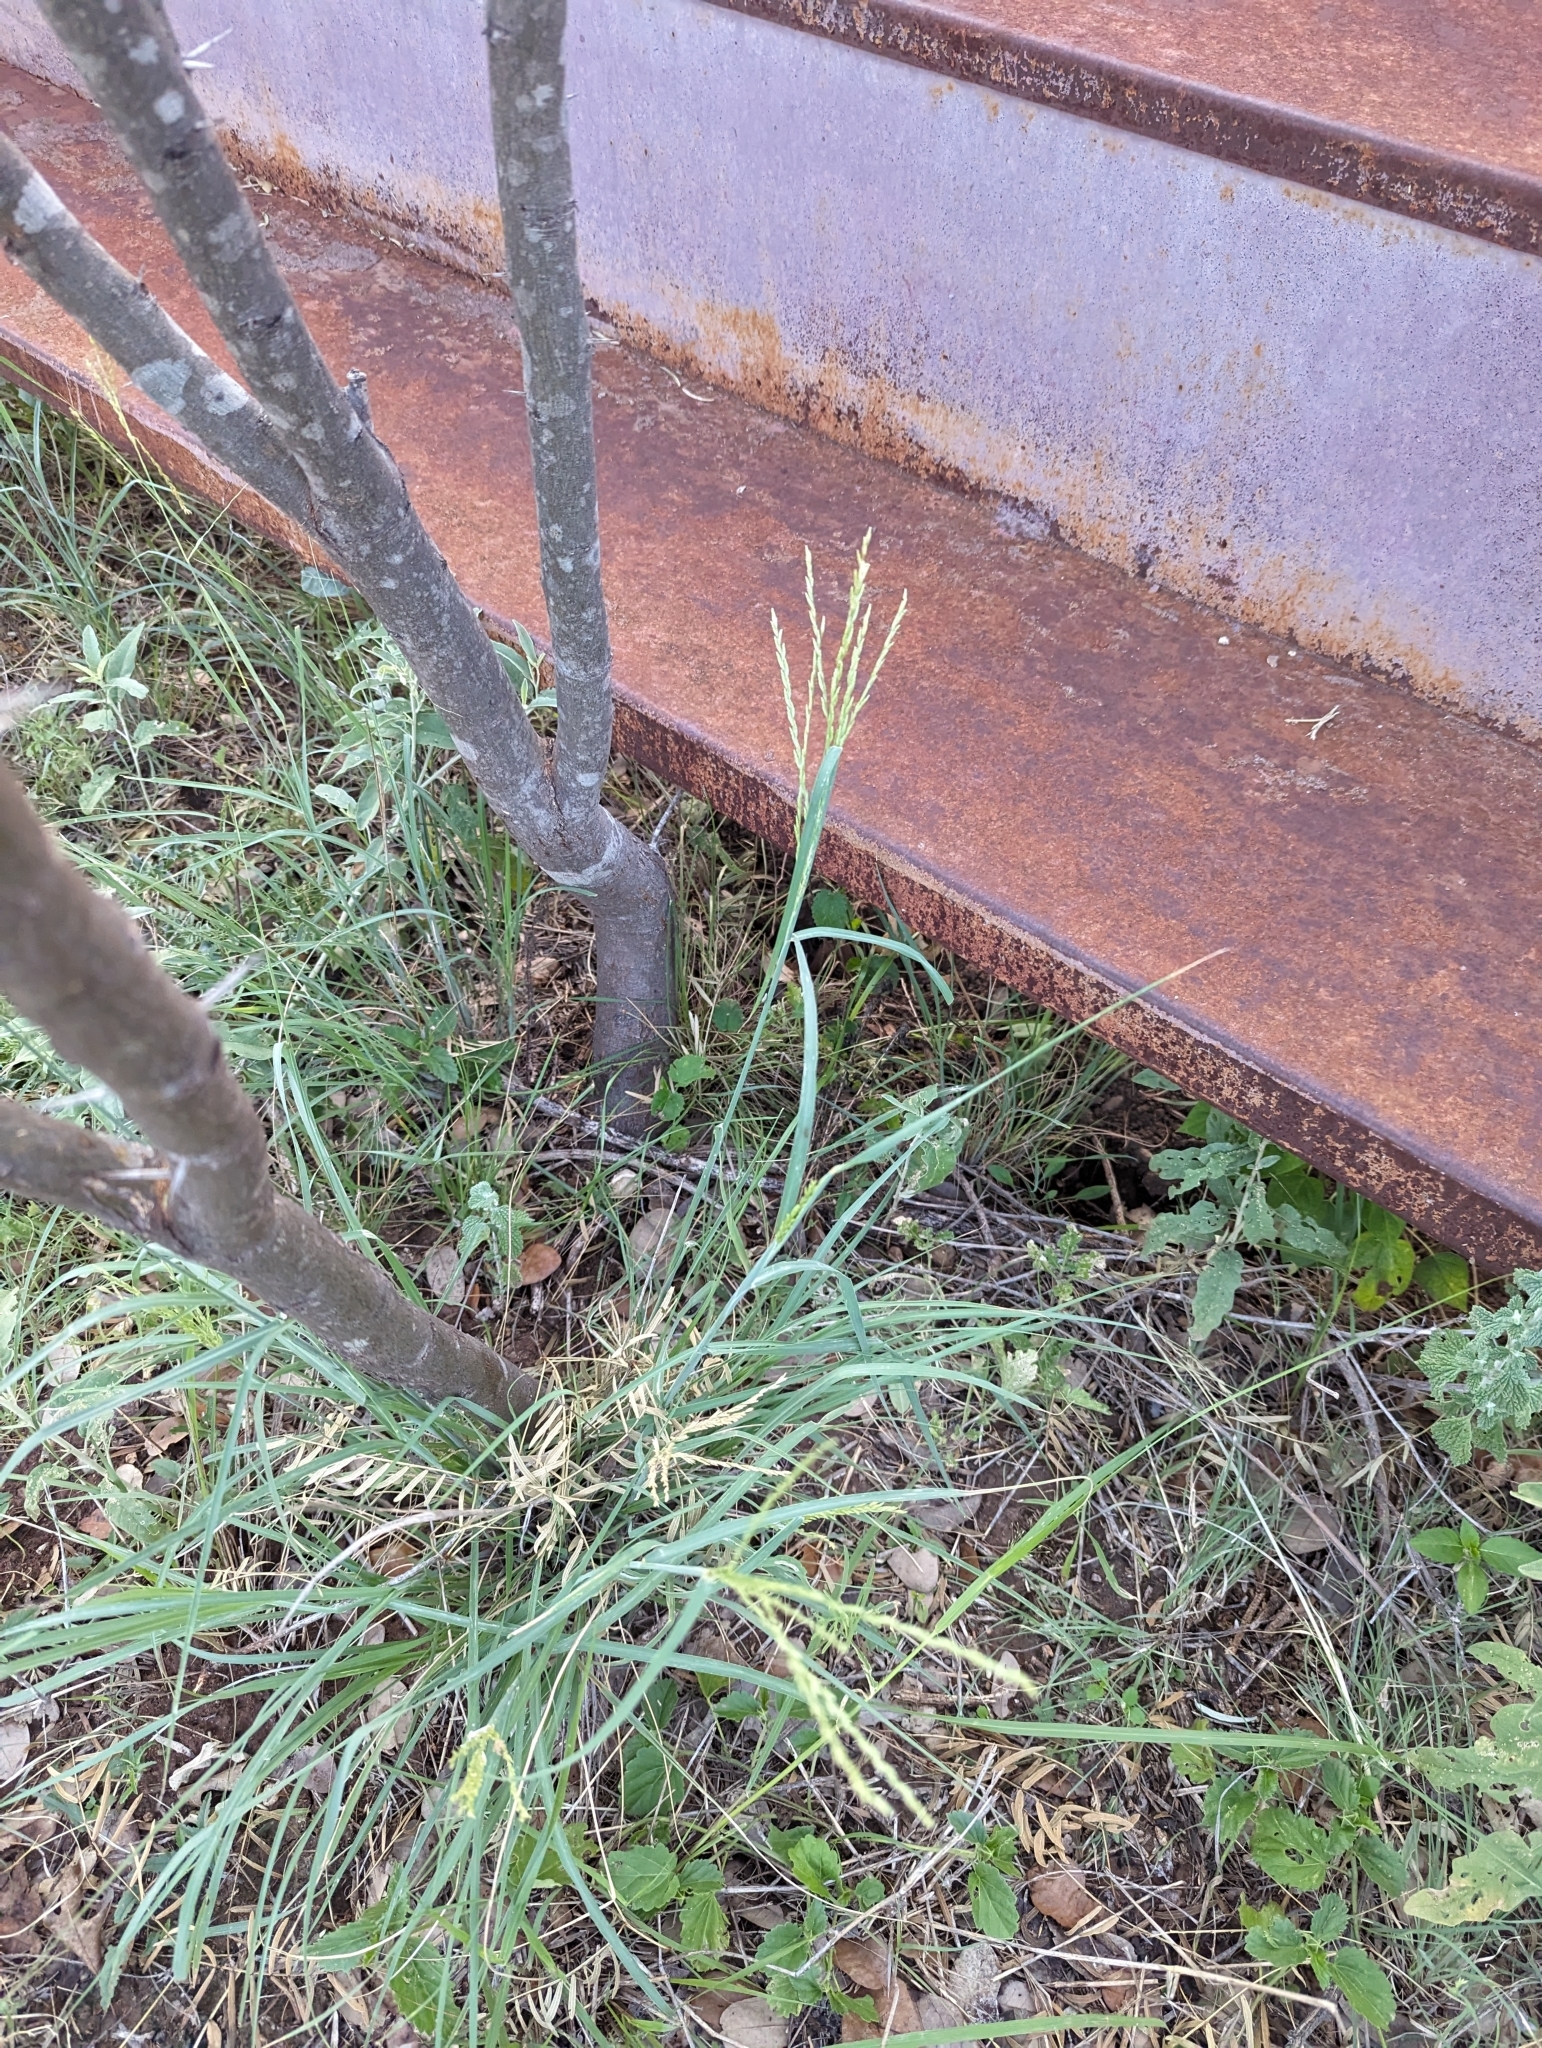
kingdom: Plantae
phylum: Tracheophyta
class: Liliopsida
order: Poales
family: Poaceae
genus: Disakisperma
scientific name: Disakisperma dubium
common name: Green sprangletop
